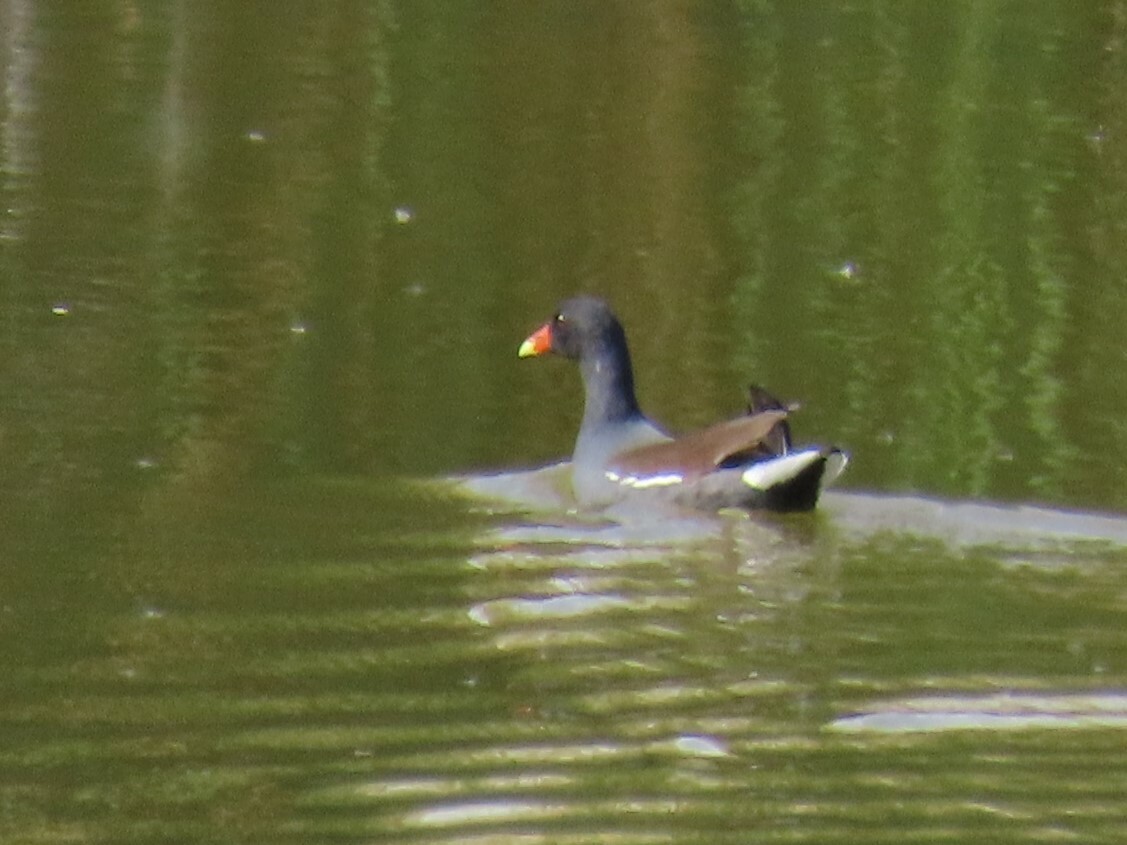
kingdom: Animalia
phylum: Chordata
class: Aves
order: Gruiformes
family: Rallidae
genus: Gallinula
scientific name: Gallinula chloropus
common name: Common moorhen
